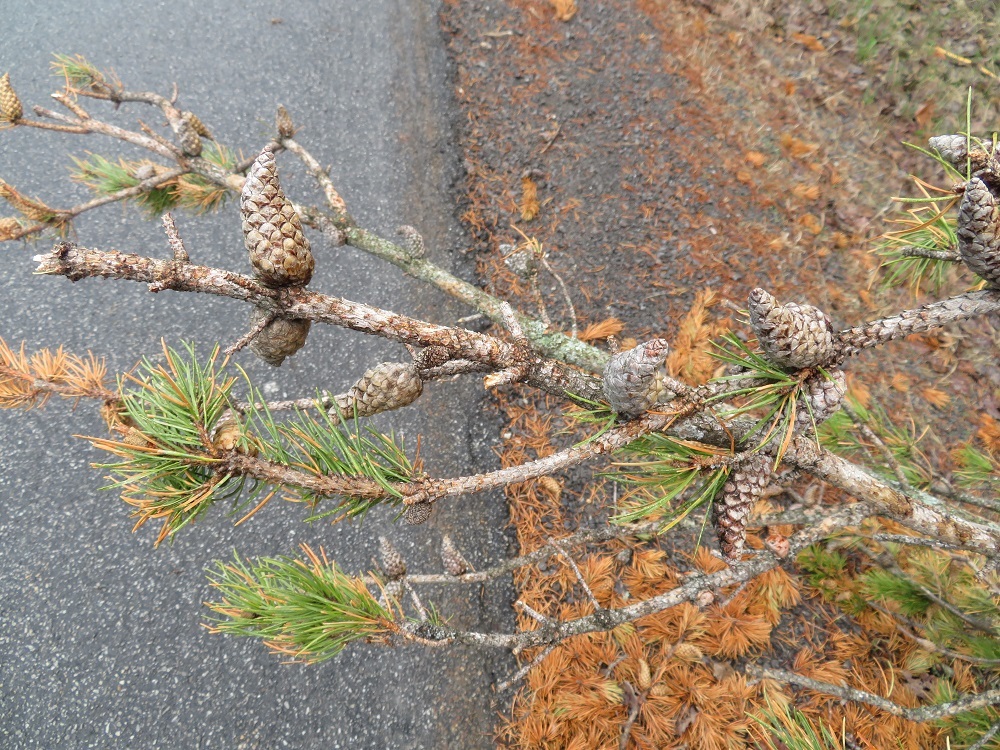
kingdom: Plantae
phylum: Tracheophyta
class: Pinopsida
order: Pinales
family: Pinaceae
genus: Pinus
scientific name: Pinus banksiana
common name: Jack pine
